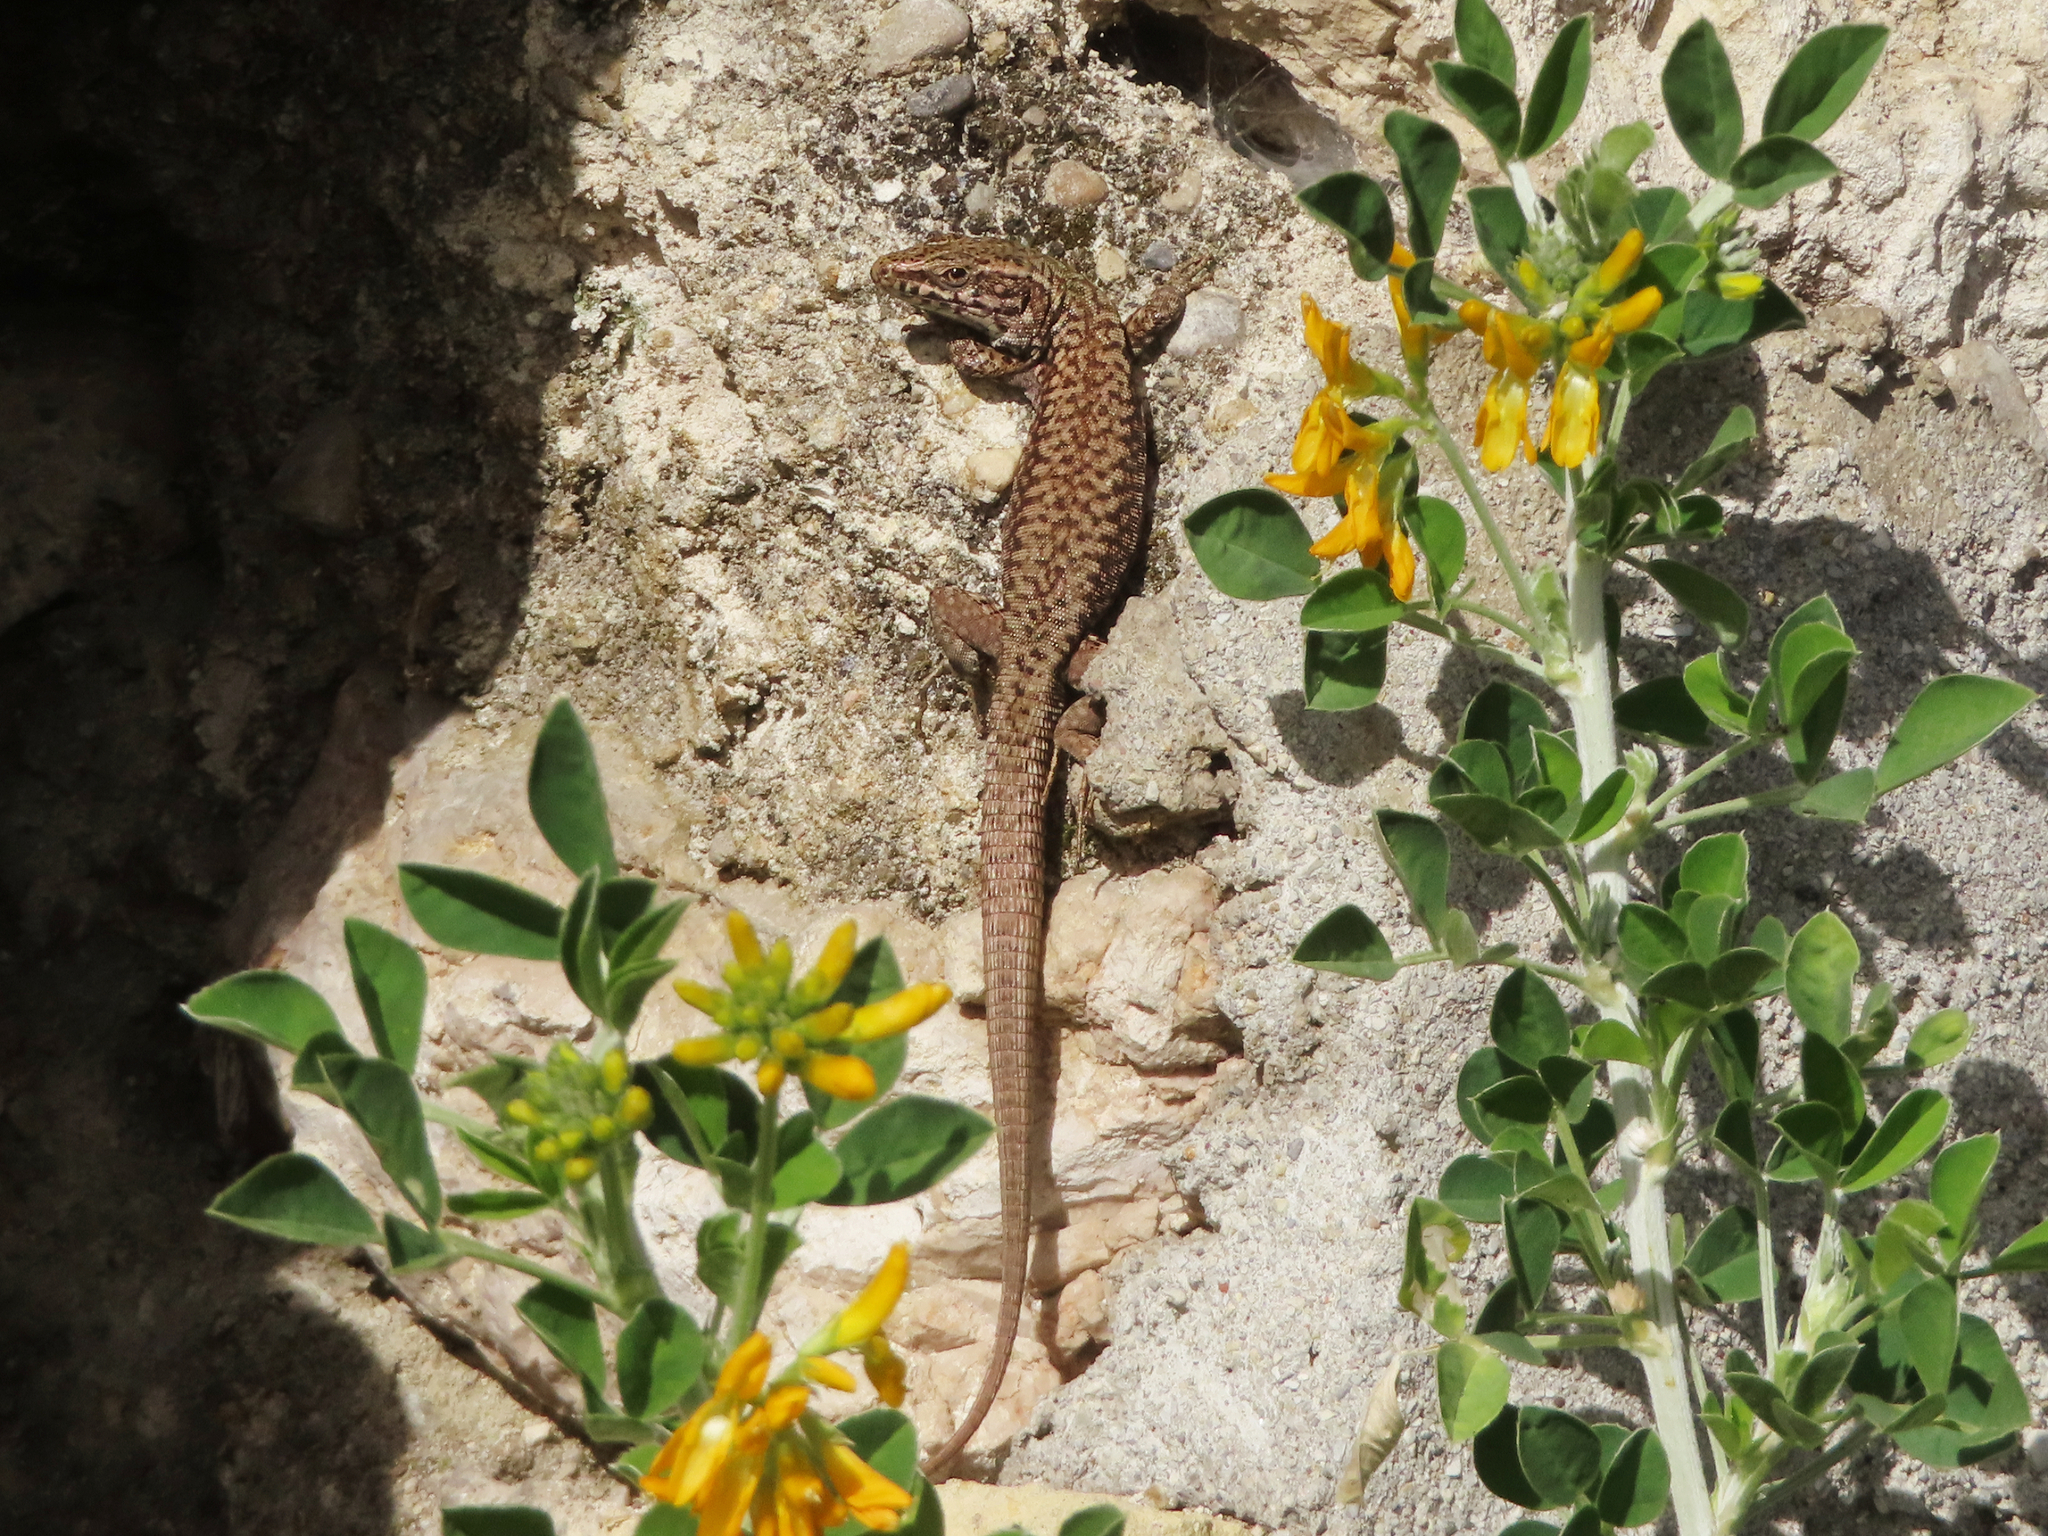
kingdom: Animalia
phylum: Chordata
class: Squamata
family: Lacertidae
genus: Podarcis
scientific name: Podarcis muralis
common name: Common wall lizard
